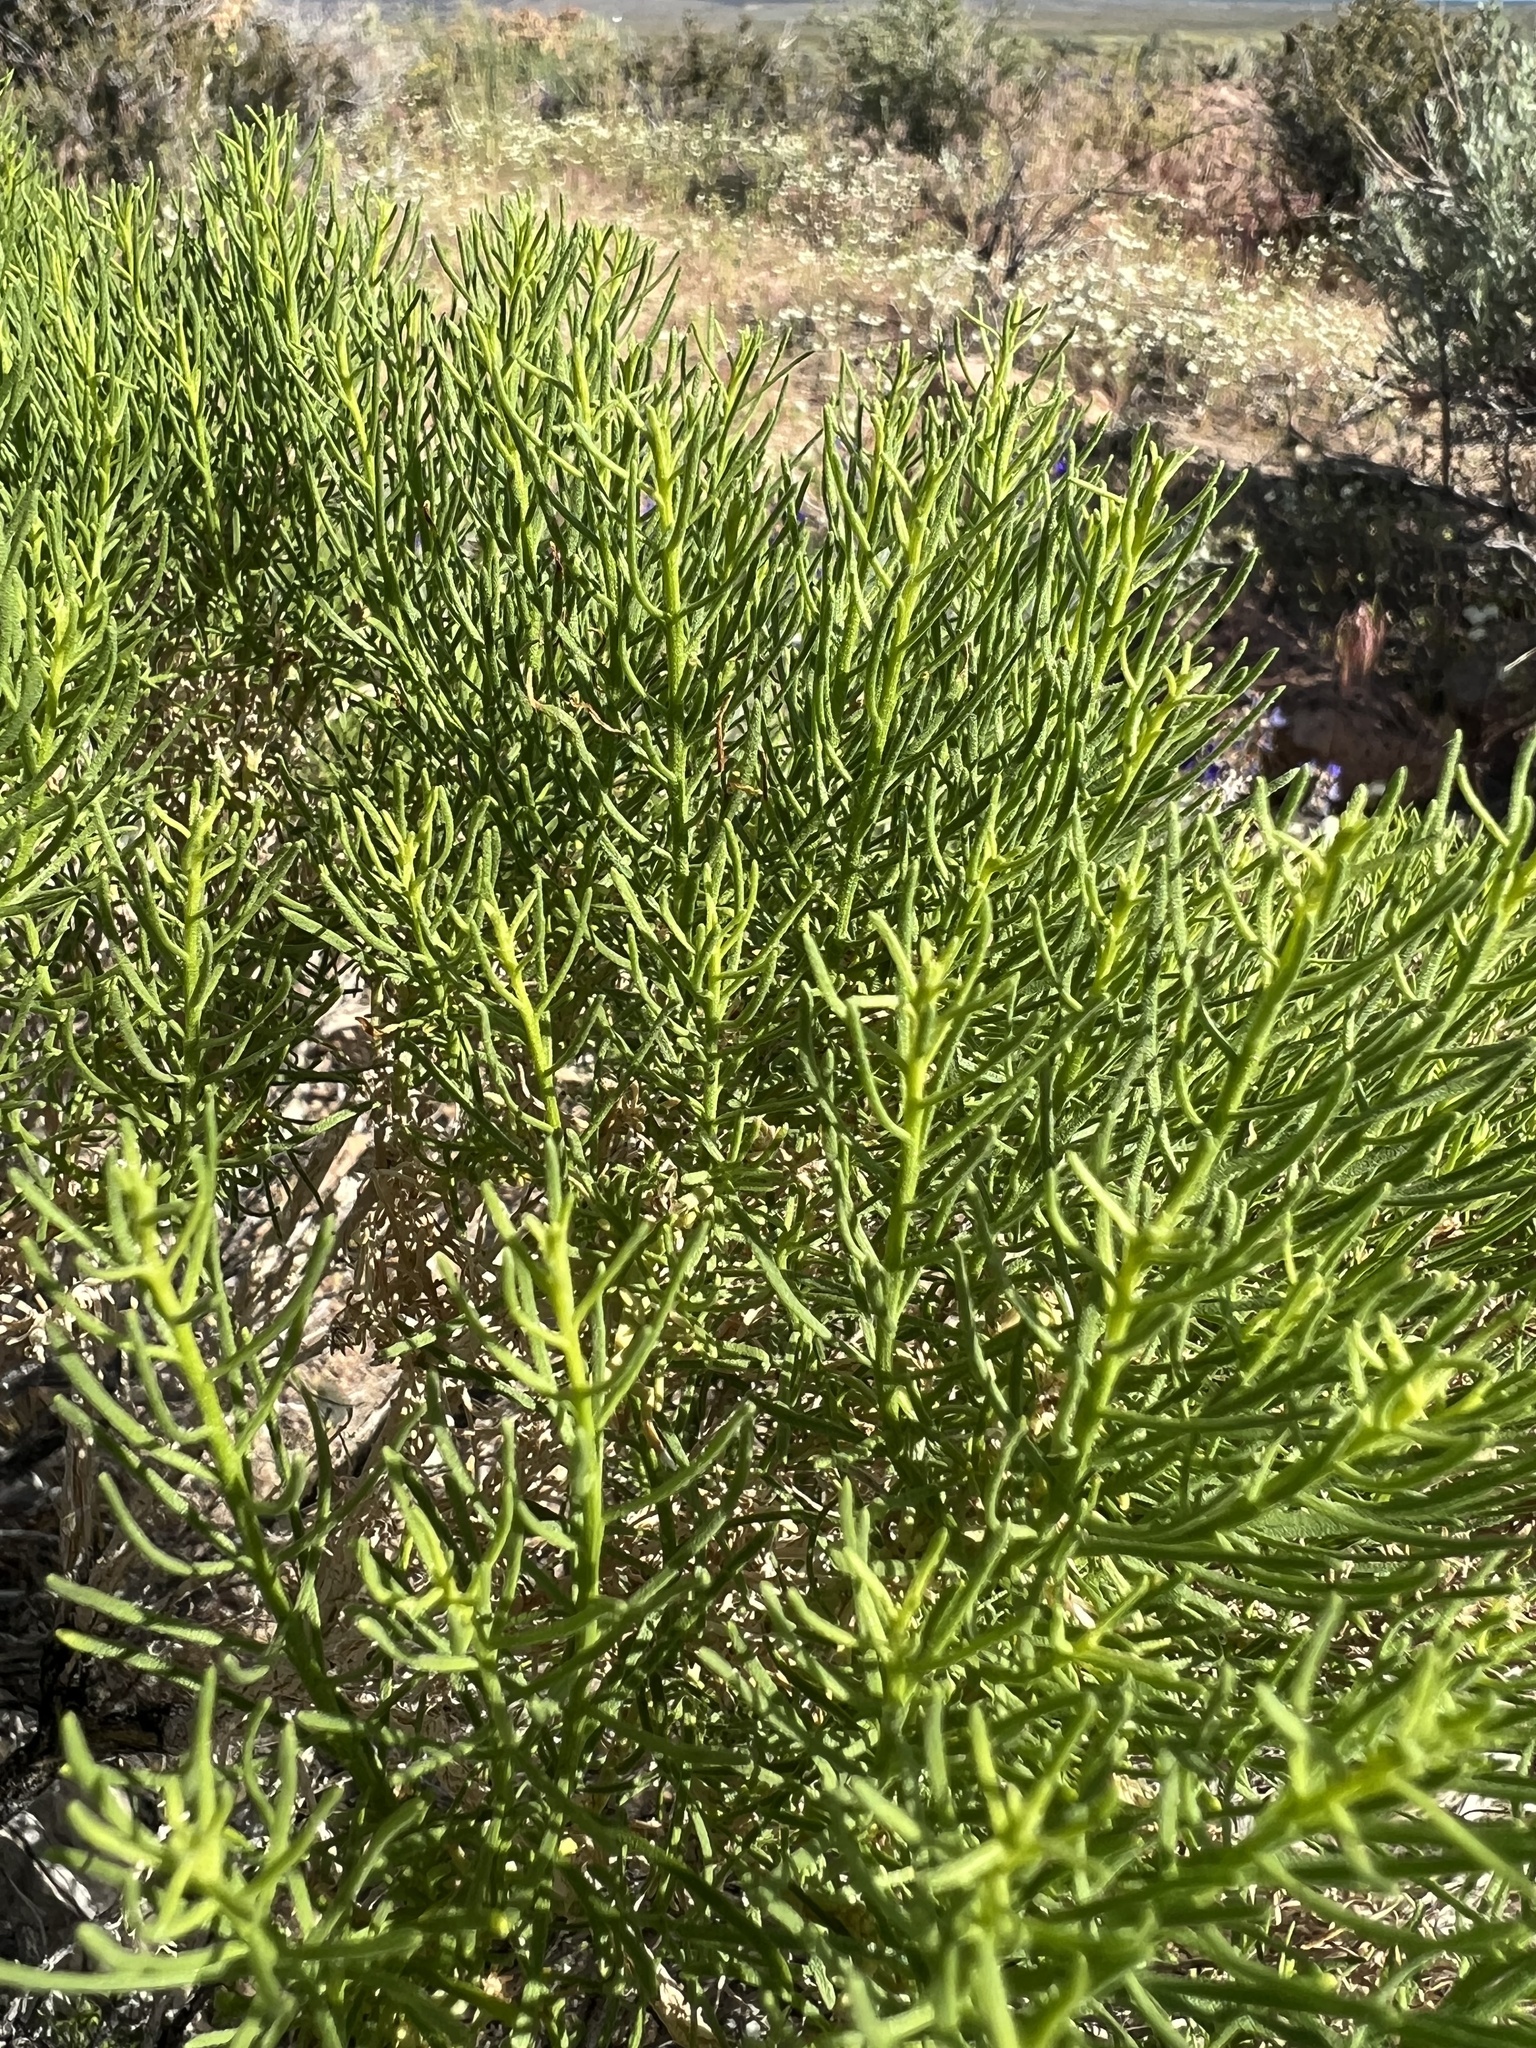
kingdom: Plantae
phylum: Tracheophyta
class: Magnoliopsida
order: Asterales
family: Asteraceae
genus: Ericameria
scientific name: Ericameria teretifolia
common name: Round-leaf rabbitbrush
